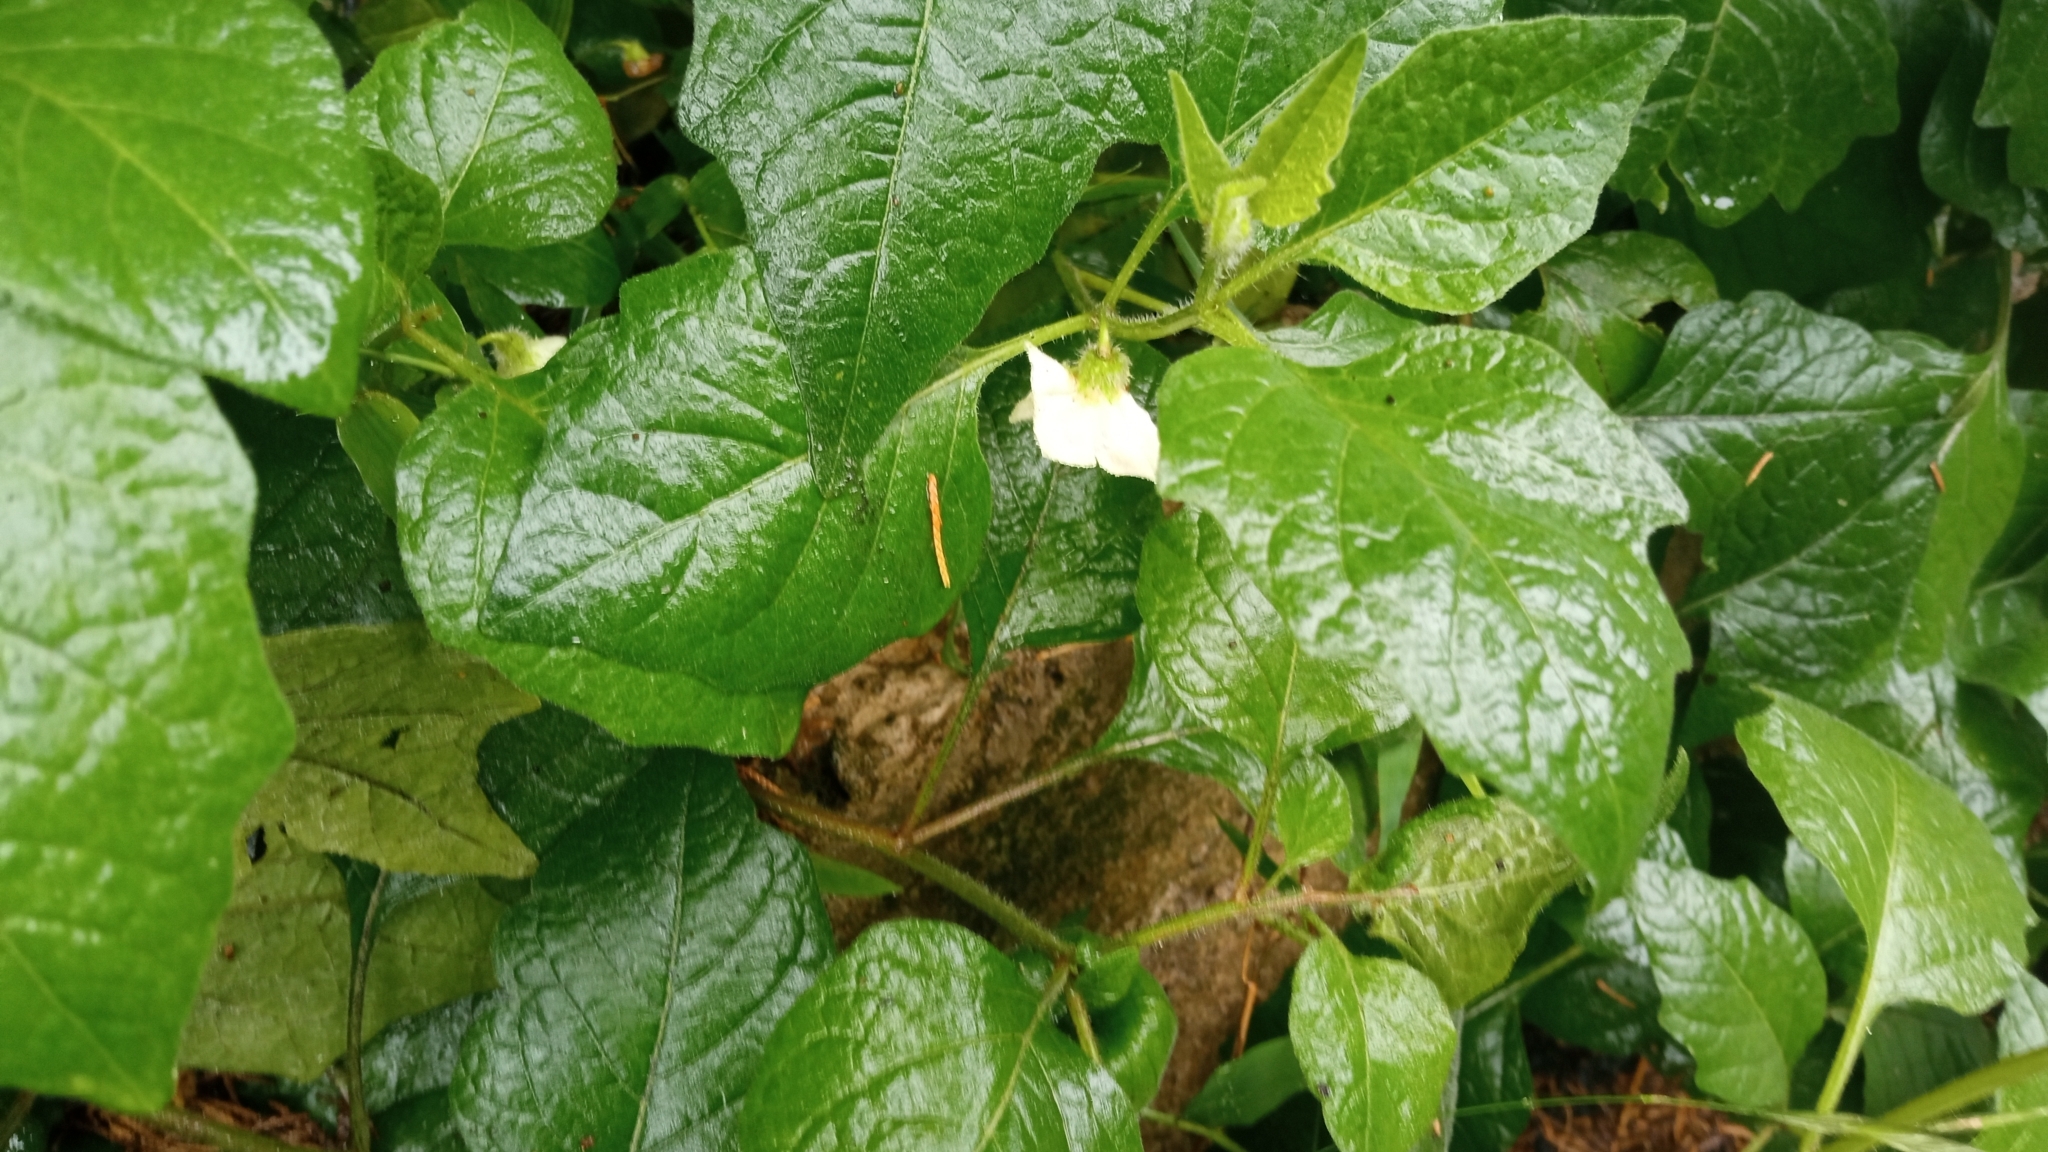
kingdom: Plantae
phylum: Tracheophyta
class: Magnoliopsida
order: Solanales
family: Solanaceae
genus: Alkekengi
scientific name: Alkekengi officinarum
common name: Japanese-lantern
